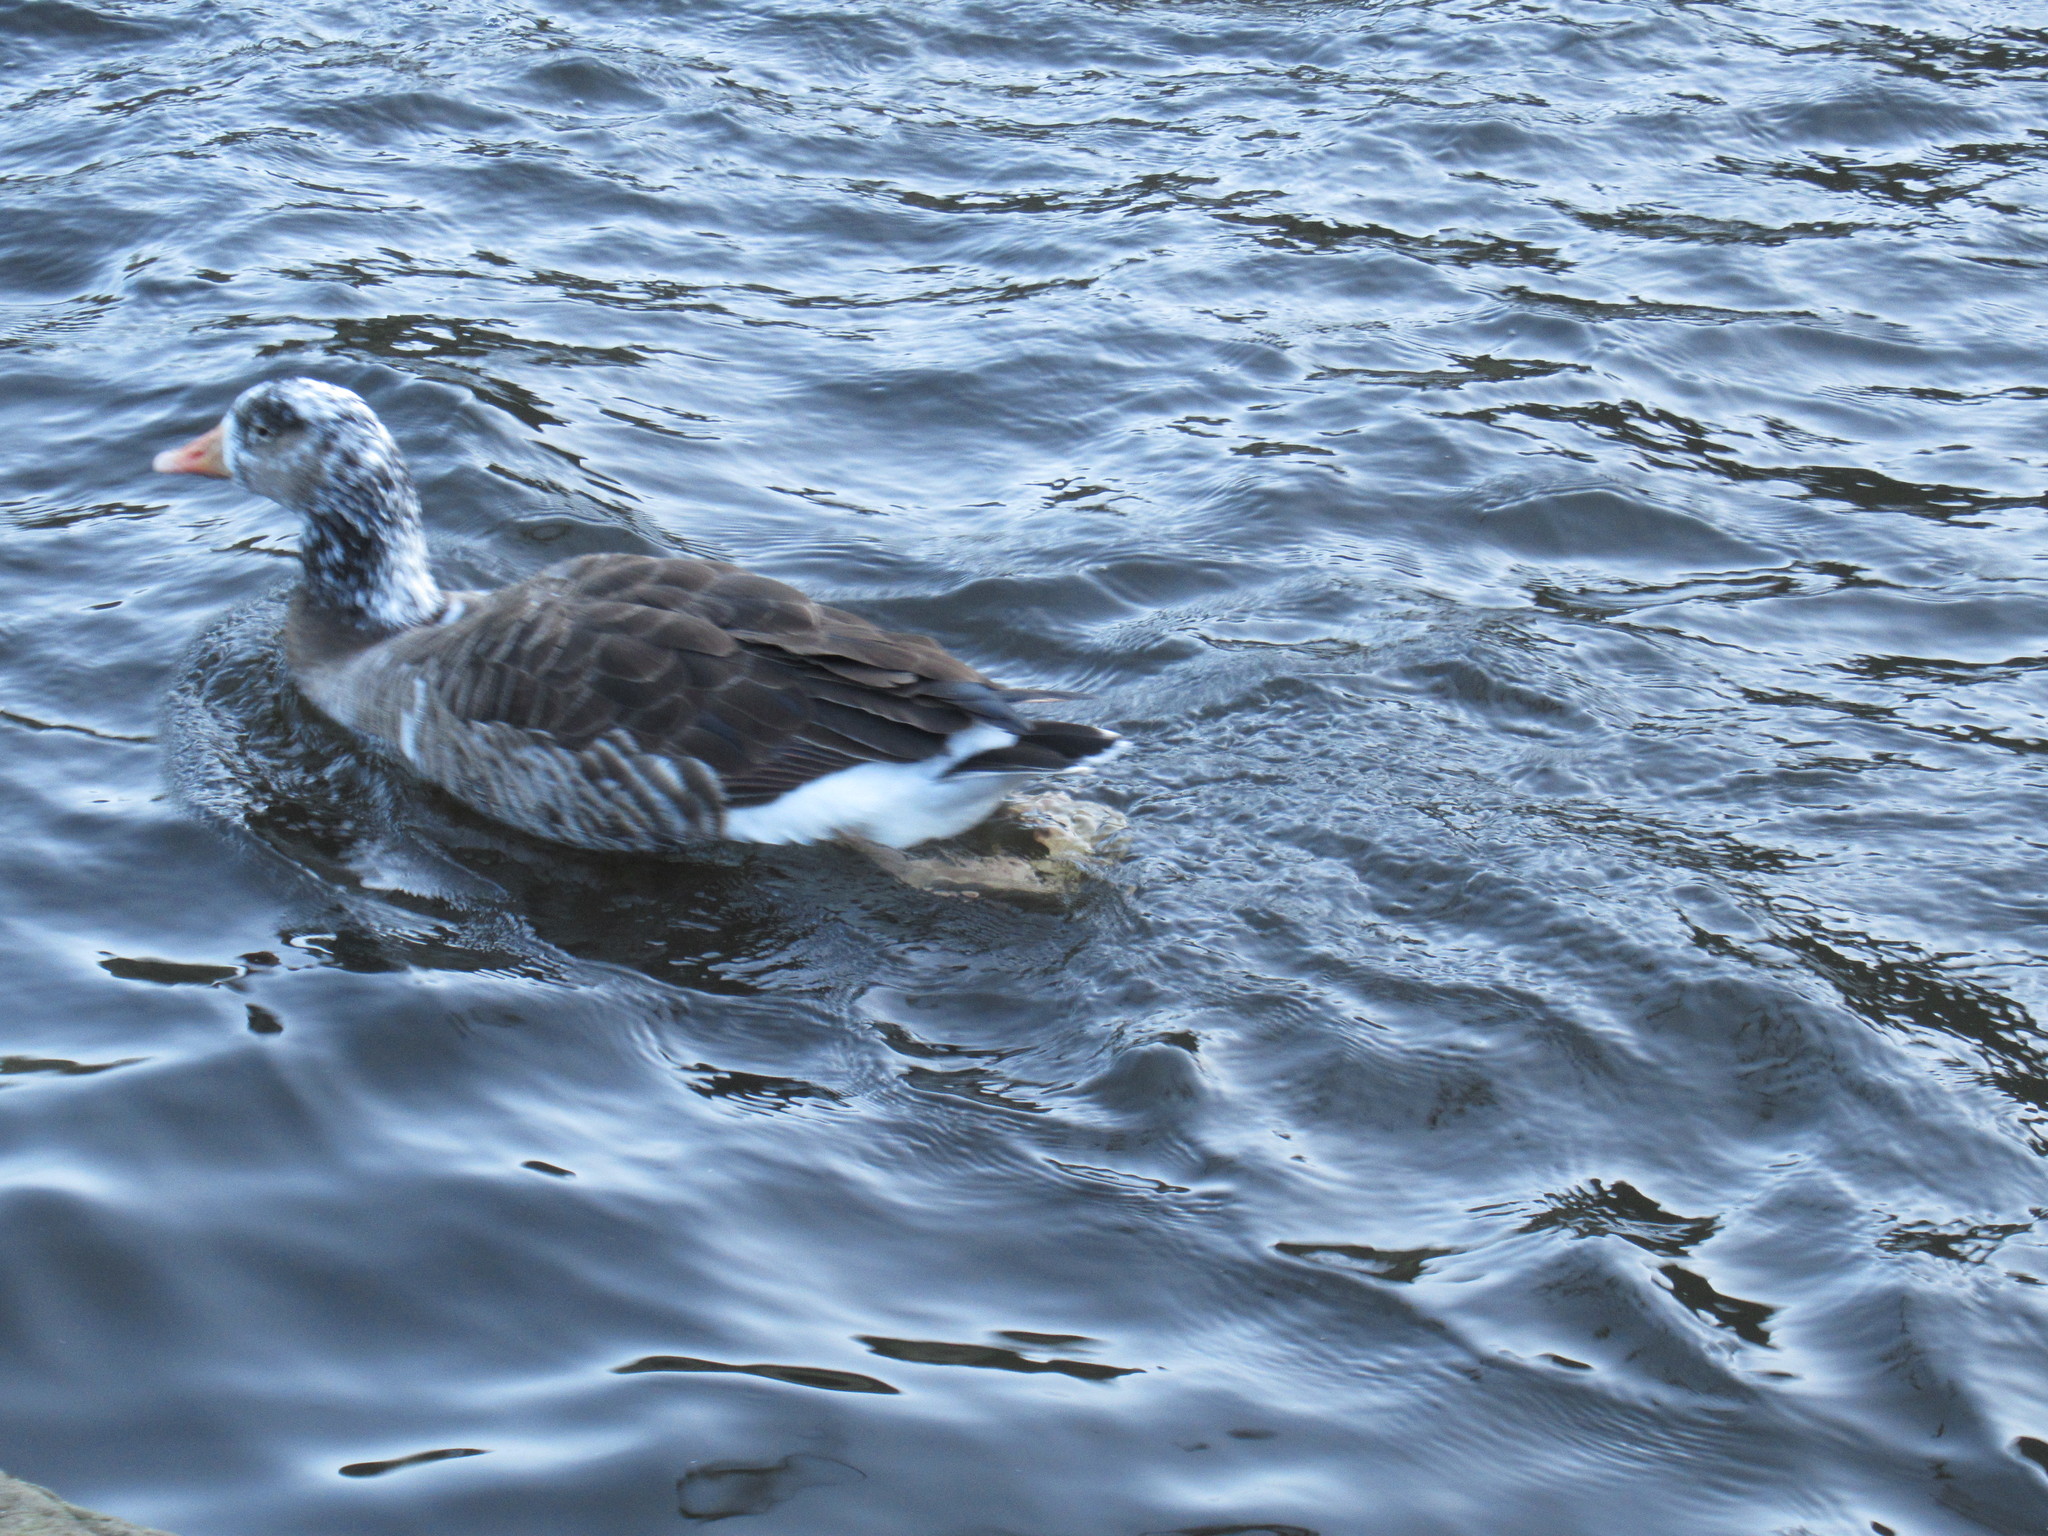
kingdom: Animalia
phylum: Chordata
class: Aves
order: Anseriformes
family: Anatidae
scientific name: Anatidae
